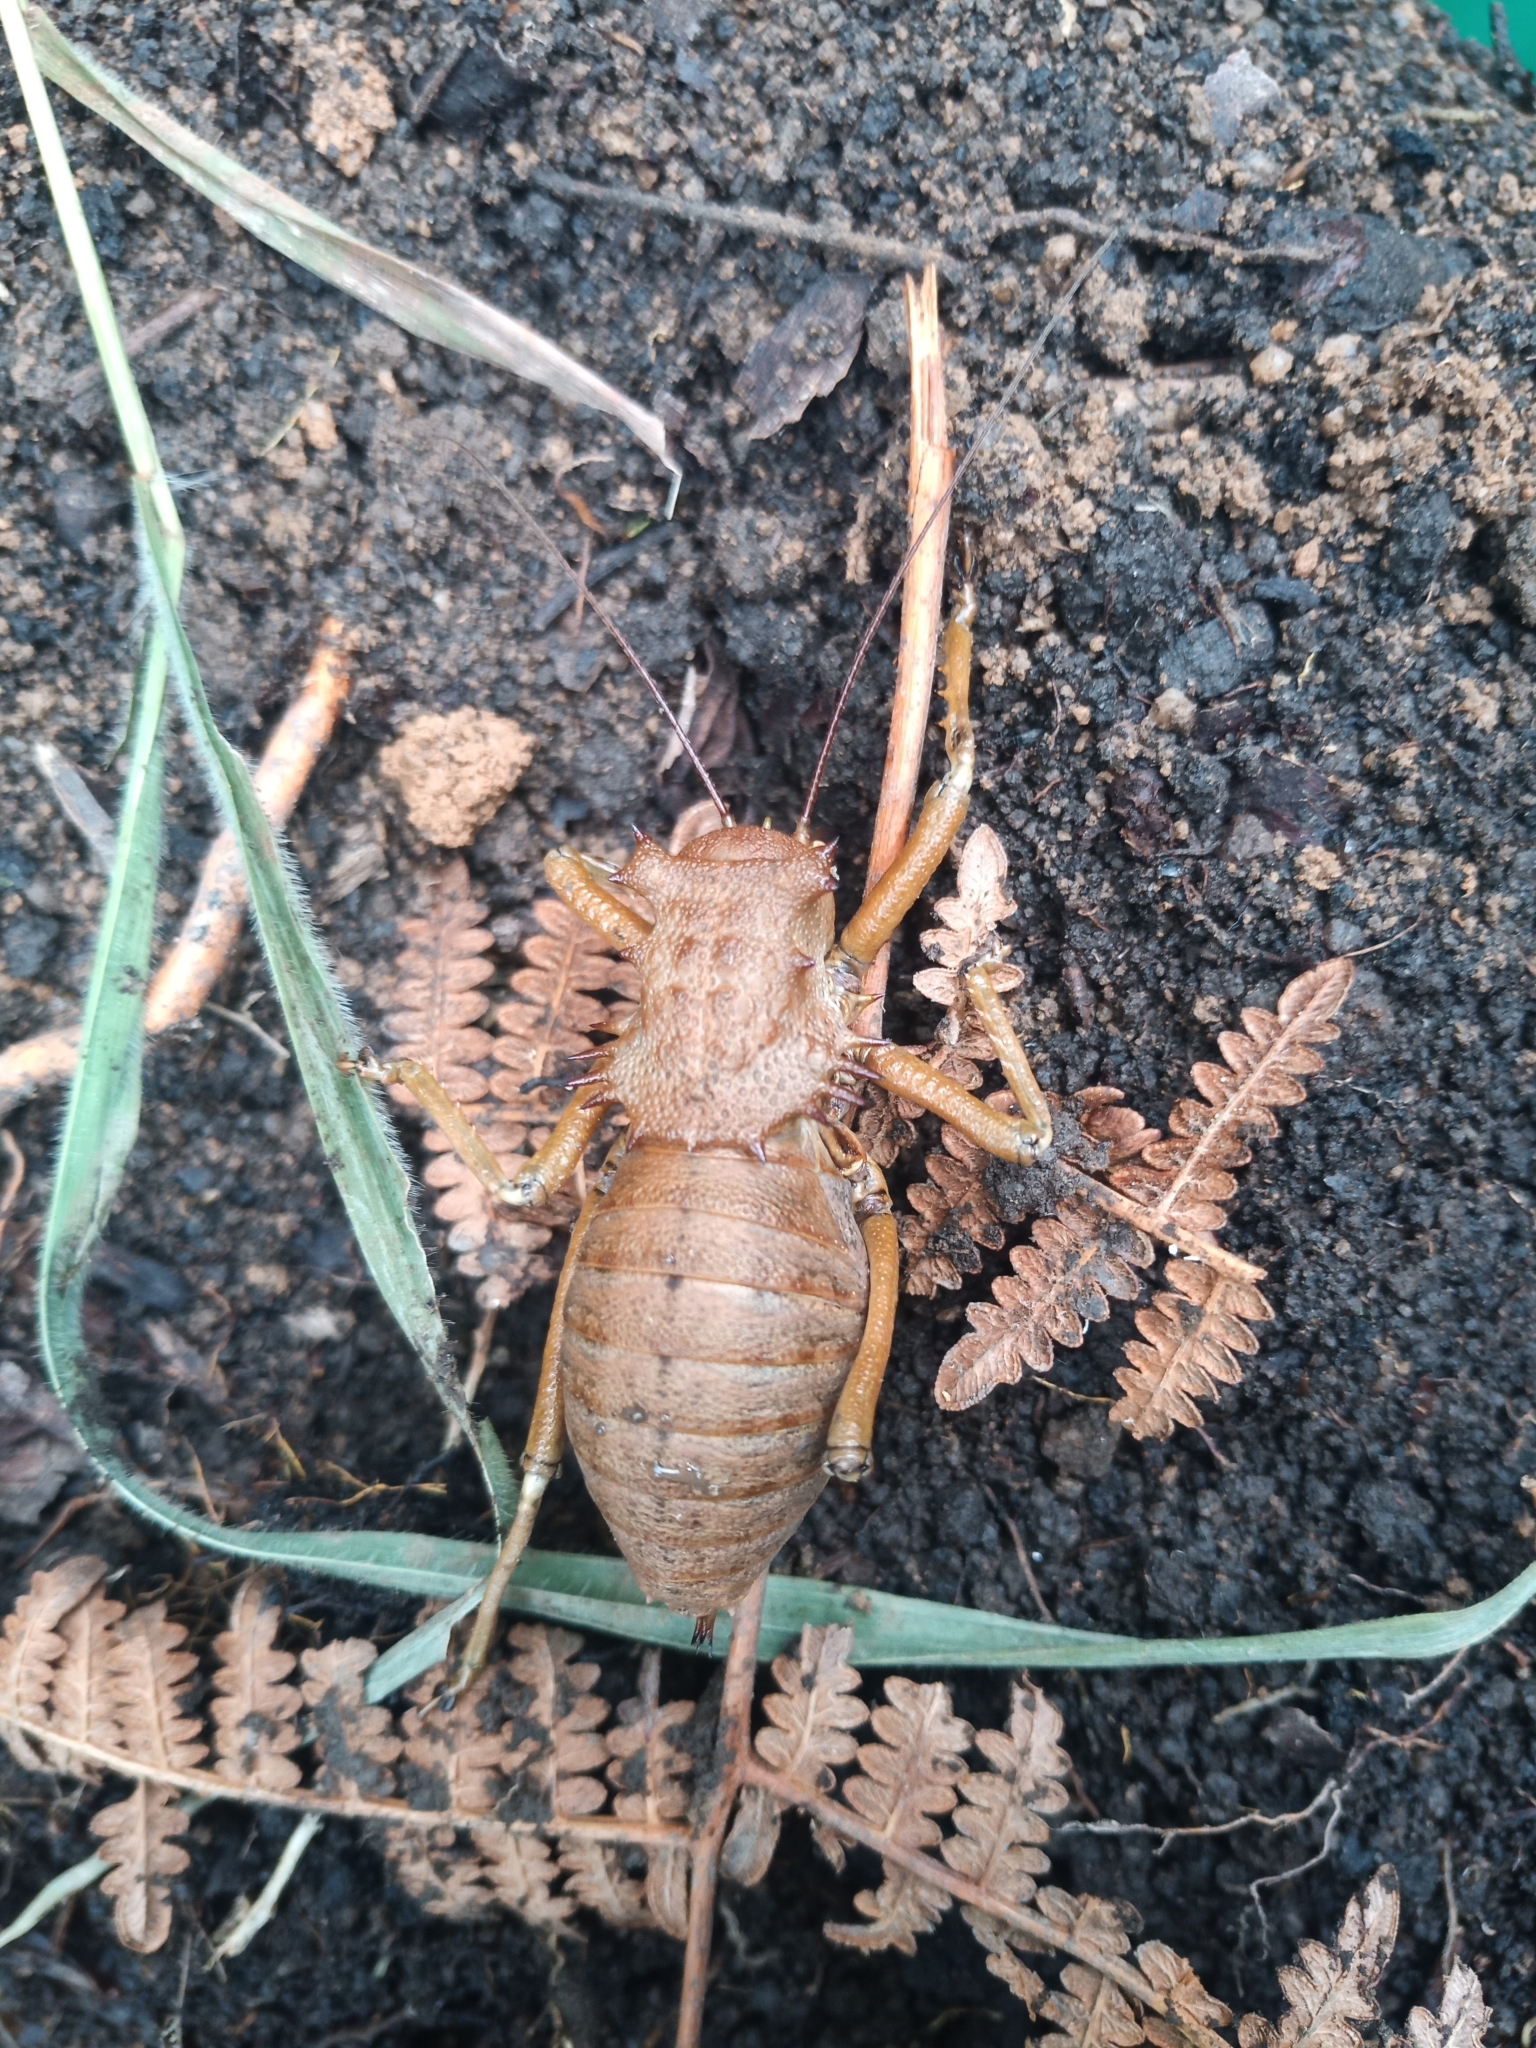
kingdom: Animalia
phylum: Arthropoda
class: Insecta
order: Orthoptera
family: Tettigoniidae
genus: Enyaliopsis
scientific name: Enyaliopsis carolinus
